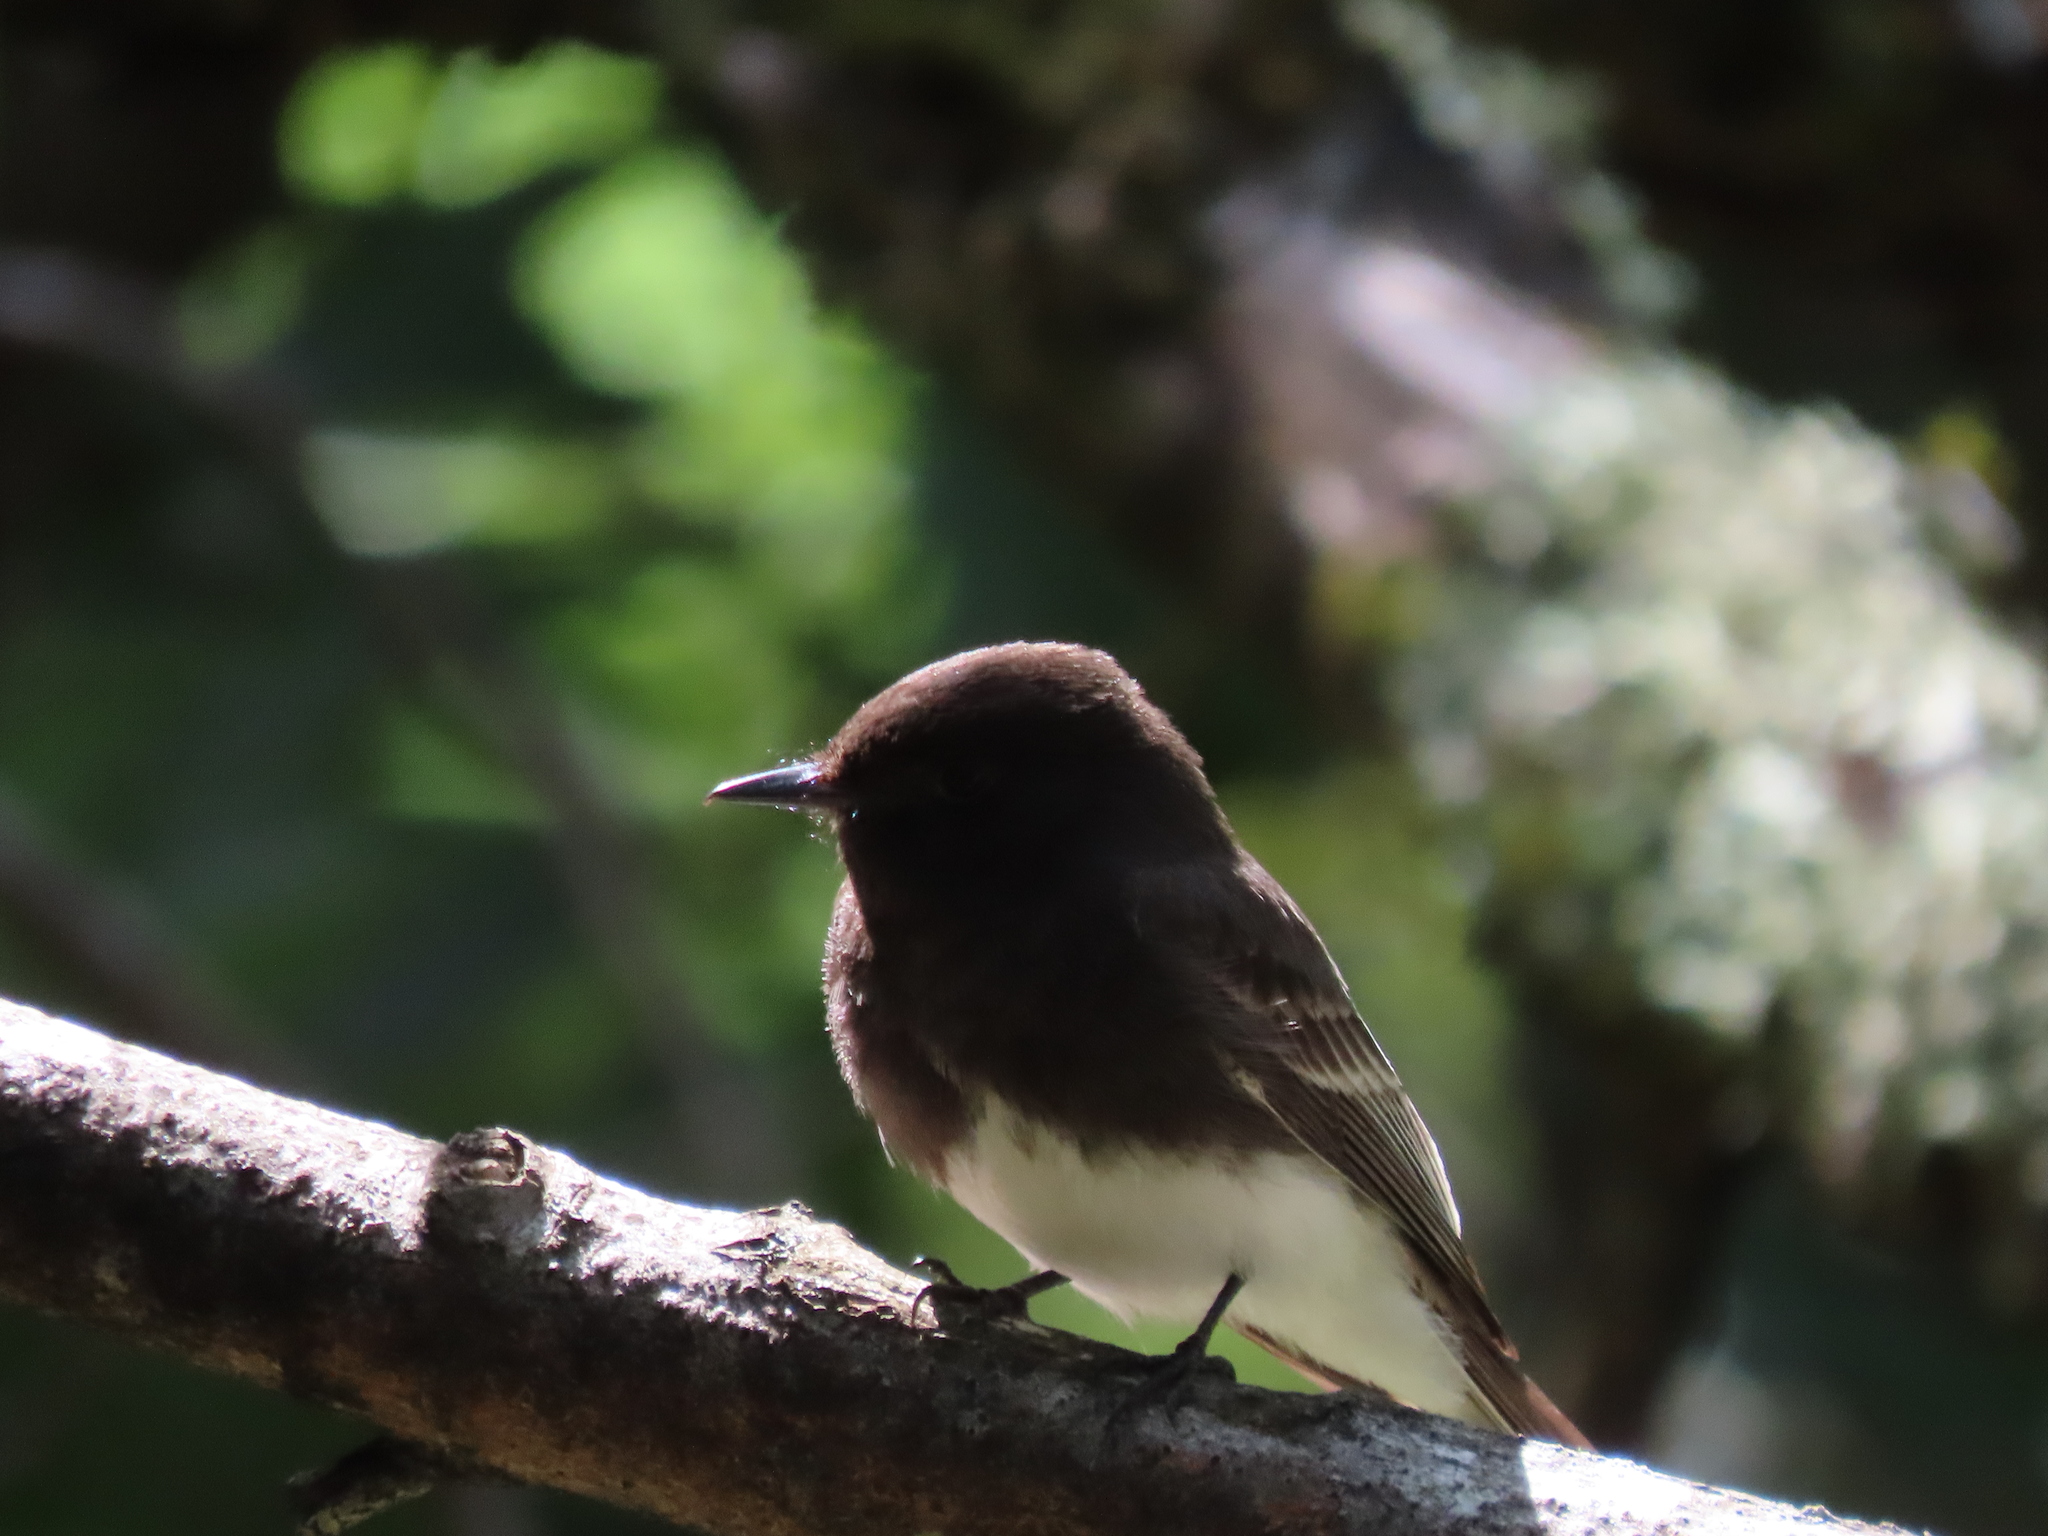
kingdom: Animalia
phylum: Chordata
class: Aves
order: Passeriformes
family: Tyrannidae
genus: Sayornis
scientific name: Sayornis nigricans
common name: Black phoebe
